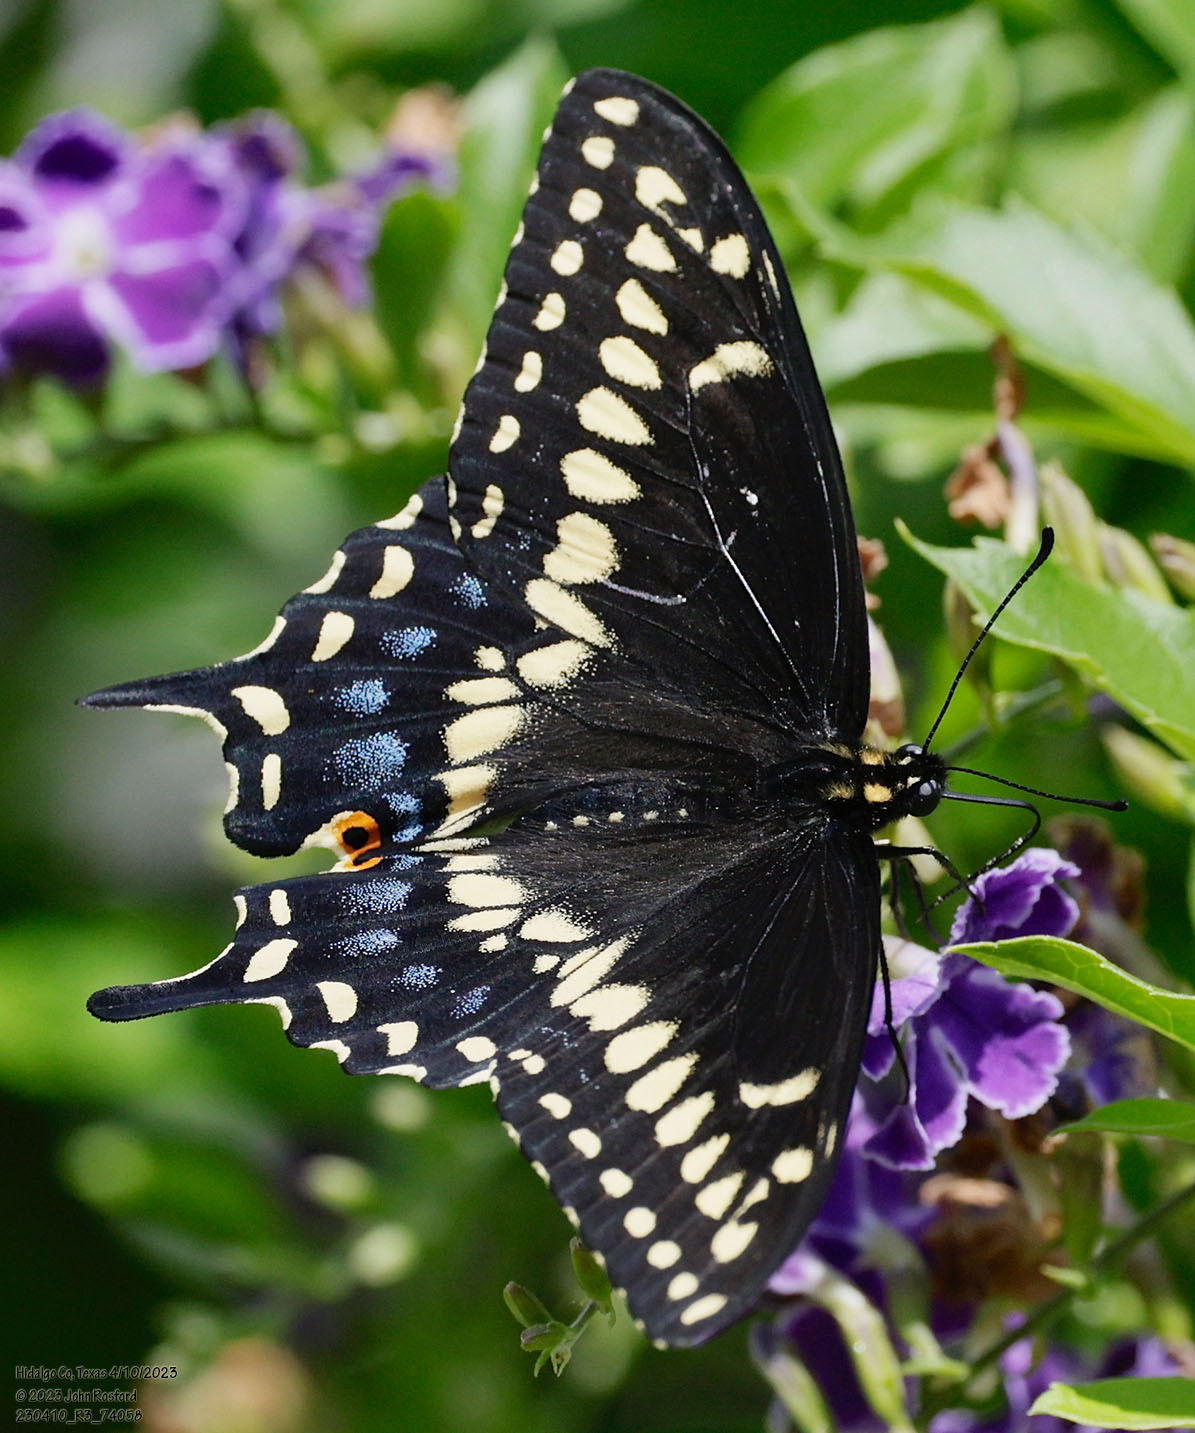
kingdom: Animalia
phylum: Arthropoda
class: Insecta
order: Lepidoptera
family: Papilionidae
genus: Papilio
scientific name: Papilio polyxenes
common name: Black swallowtail
